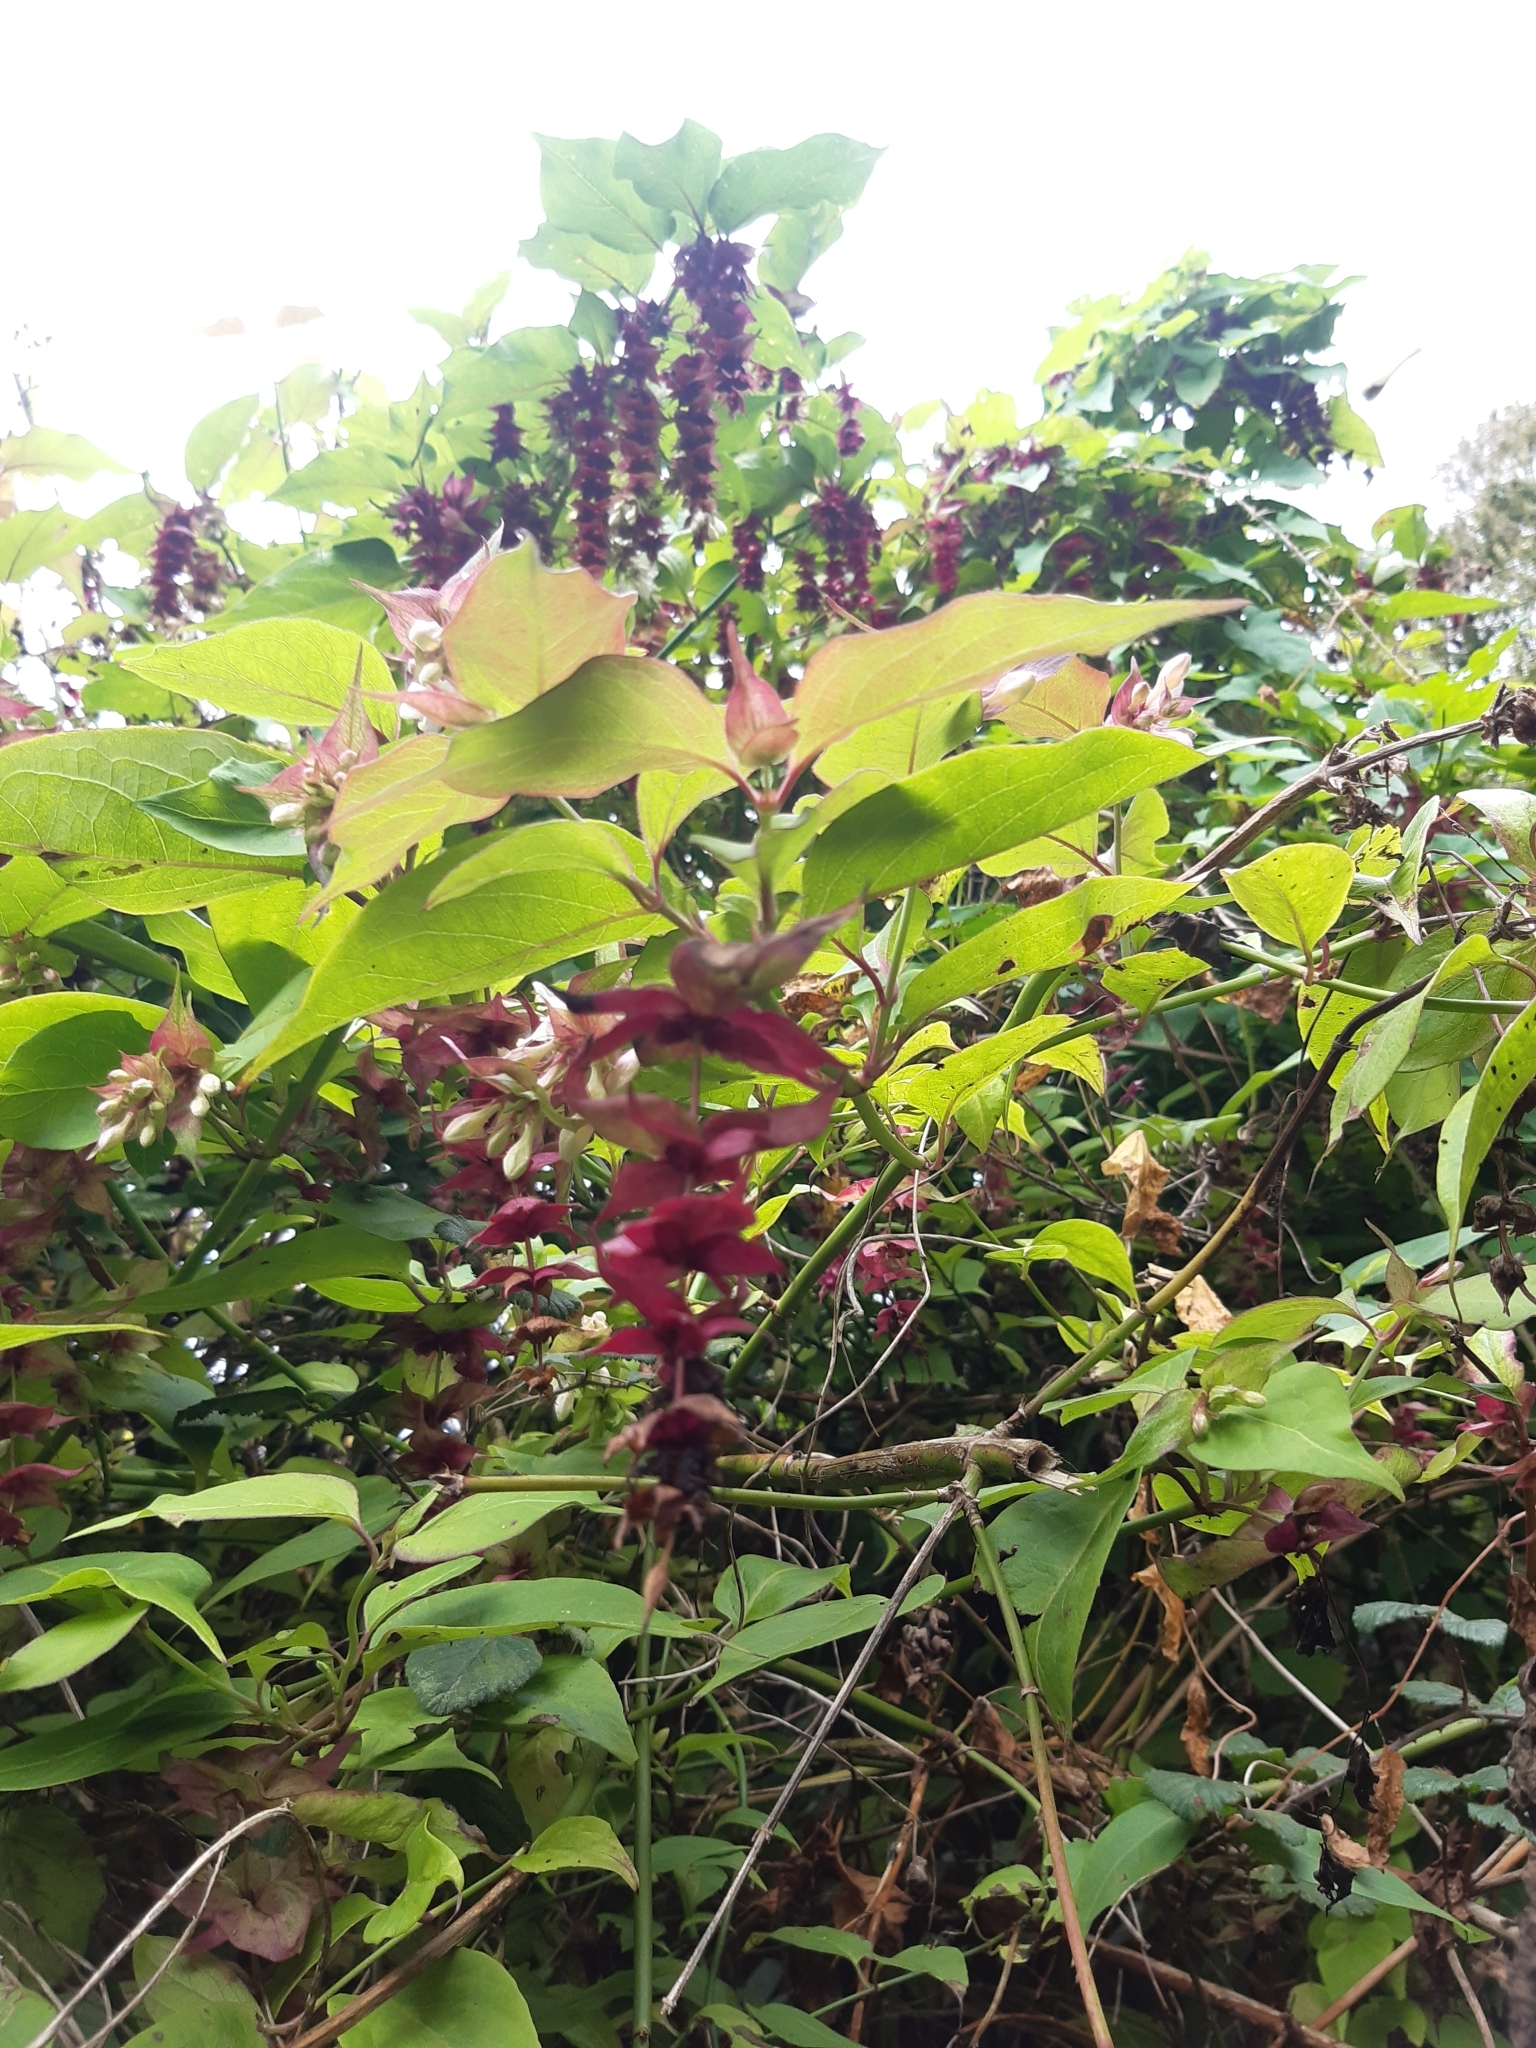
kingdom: Plantae
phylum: Tracheophyta
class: Magnoliopsida
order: Dipsacales
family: Caprifoliaceae
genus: Leycesteria
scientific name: Leycesteria formosa
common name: Himalayan honeysuckle
